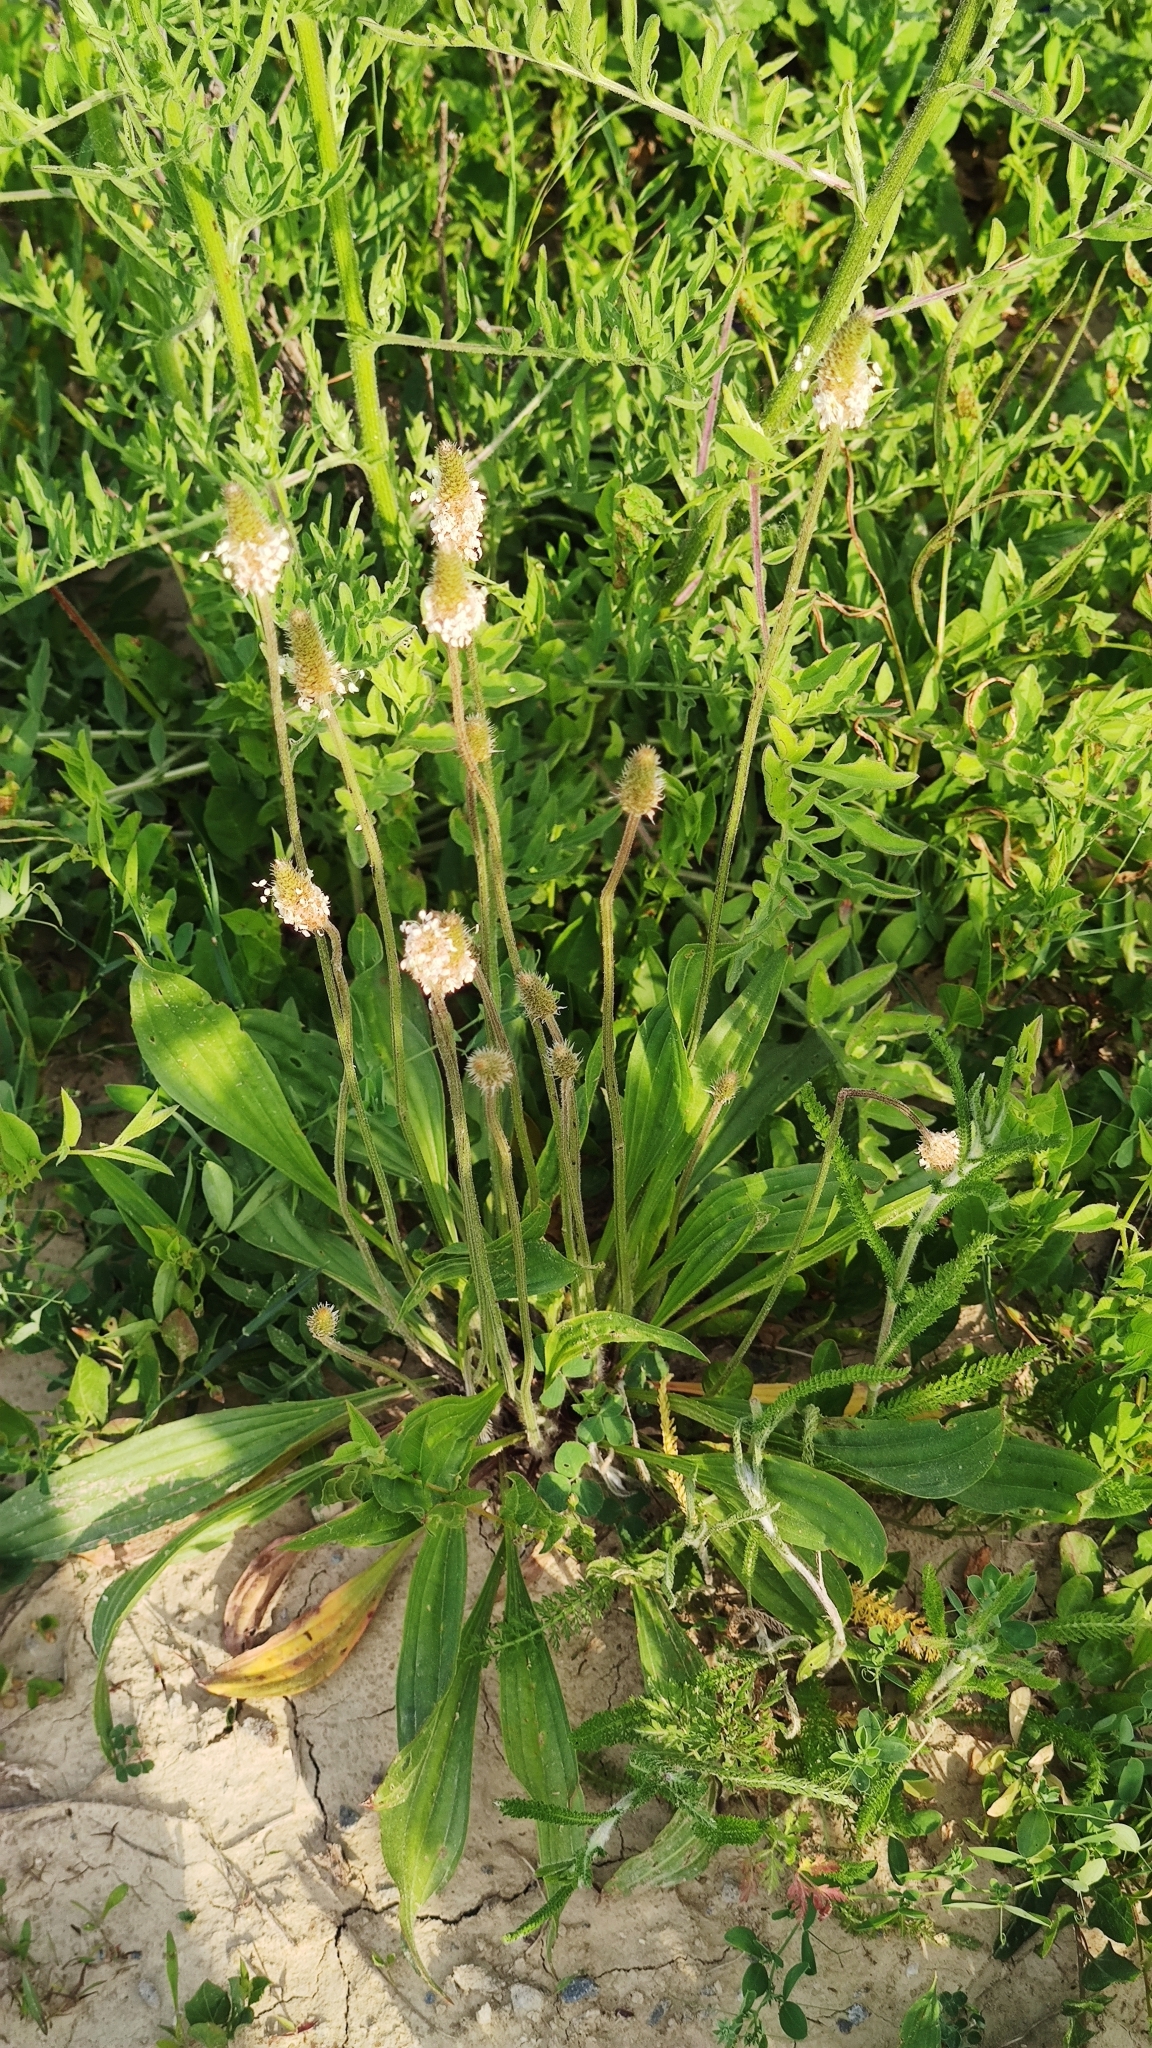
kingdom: Plantae
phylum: Tracheophyta
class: Magnoliopsida
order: Lamiales
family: Plantaginaceae
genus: Plantago
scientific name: Plantago lanceolata
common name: Ribwort plantain
